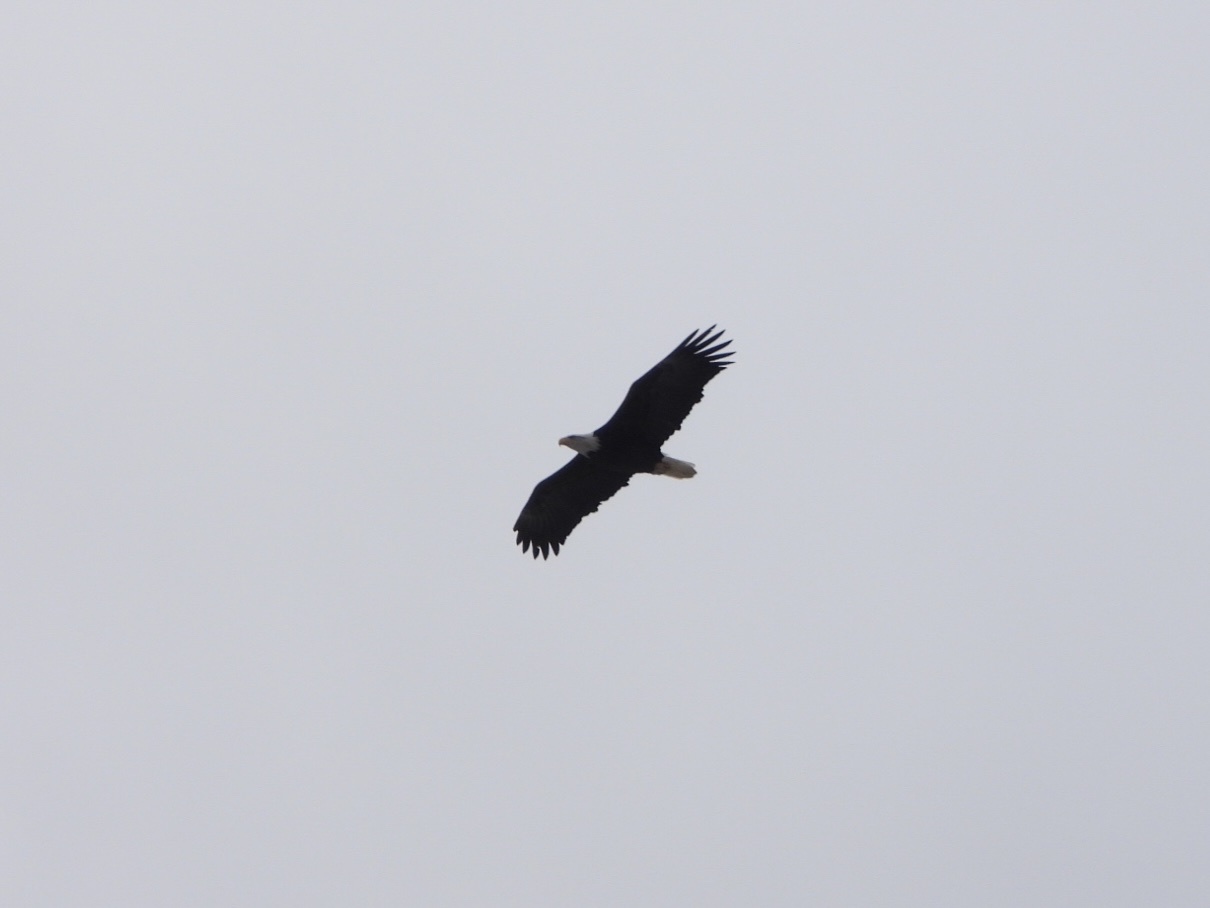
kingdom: Animalia
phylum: Chordata
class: Aves
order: Accipitriformes
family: Accipitridae
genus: Haliaeetus
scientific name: Haliaeetus leucocephalus
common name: Bald eagle
